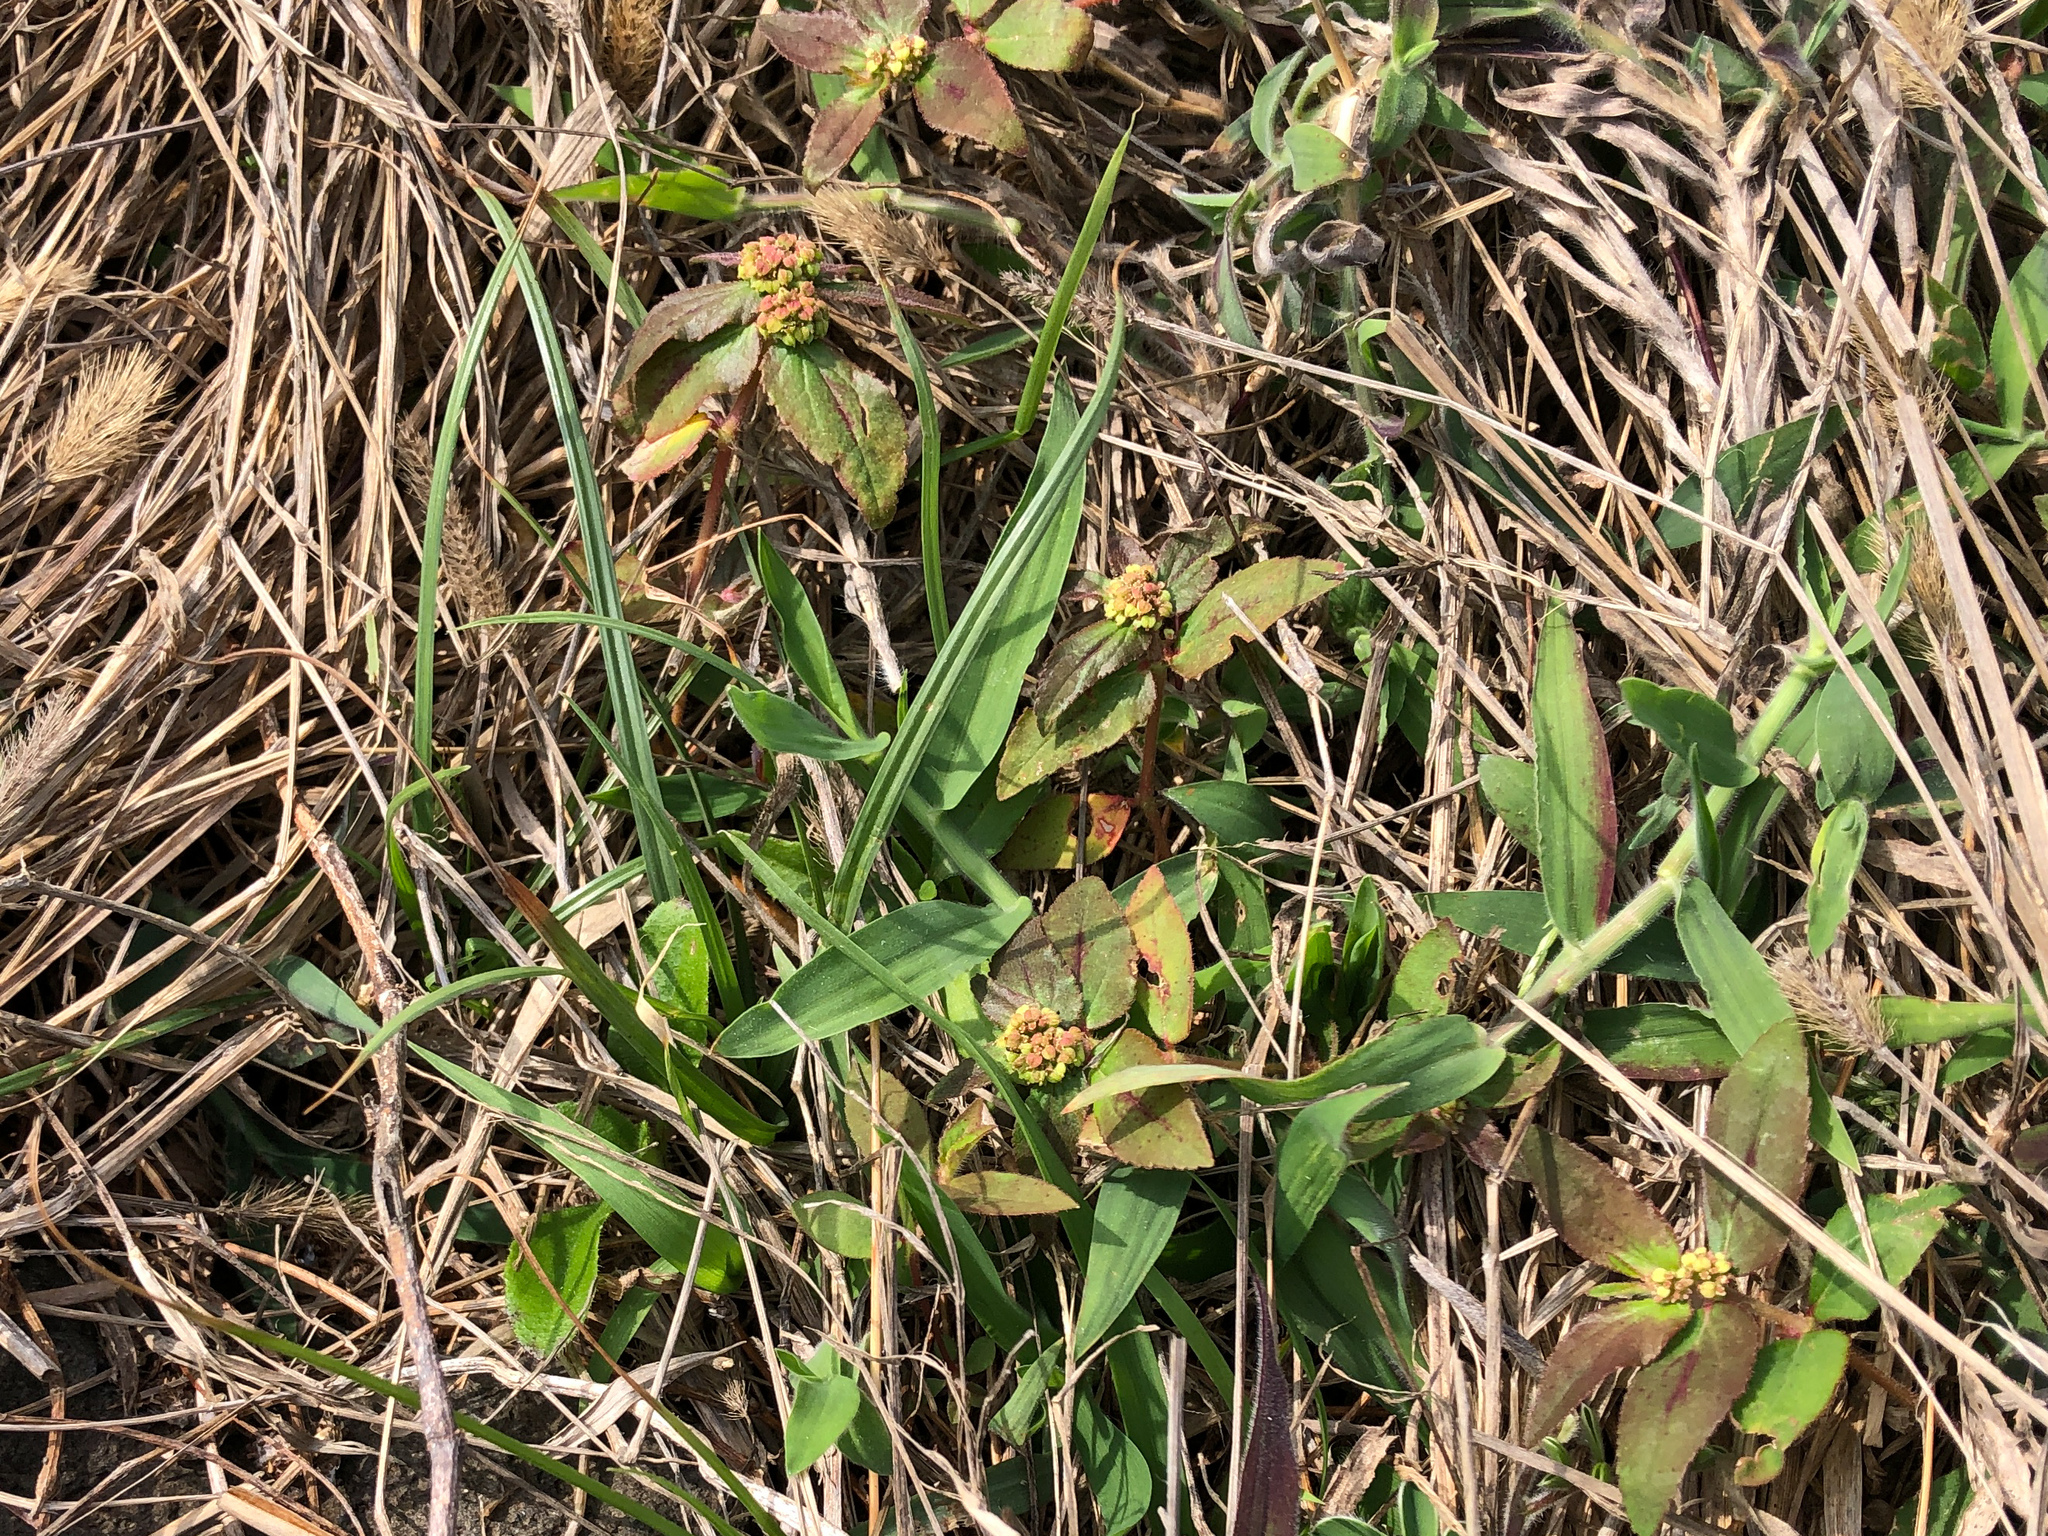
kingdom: Plantae
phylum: Tracheophyta
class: Magnoliopsida
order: Malpighiales
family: Euphorbiaceae
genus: Euphorbia
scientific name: Euphorbia hirta
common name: Pillpod sandmat
